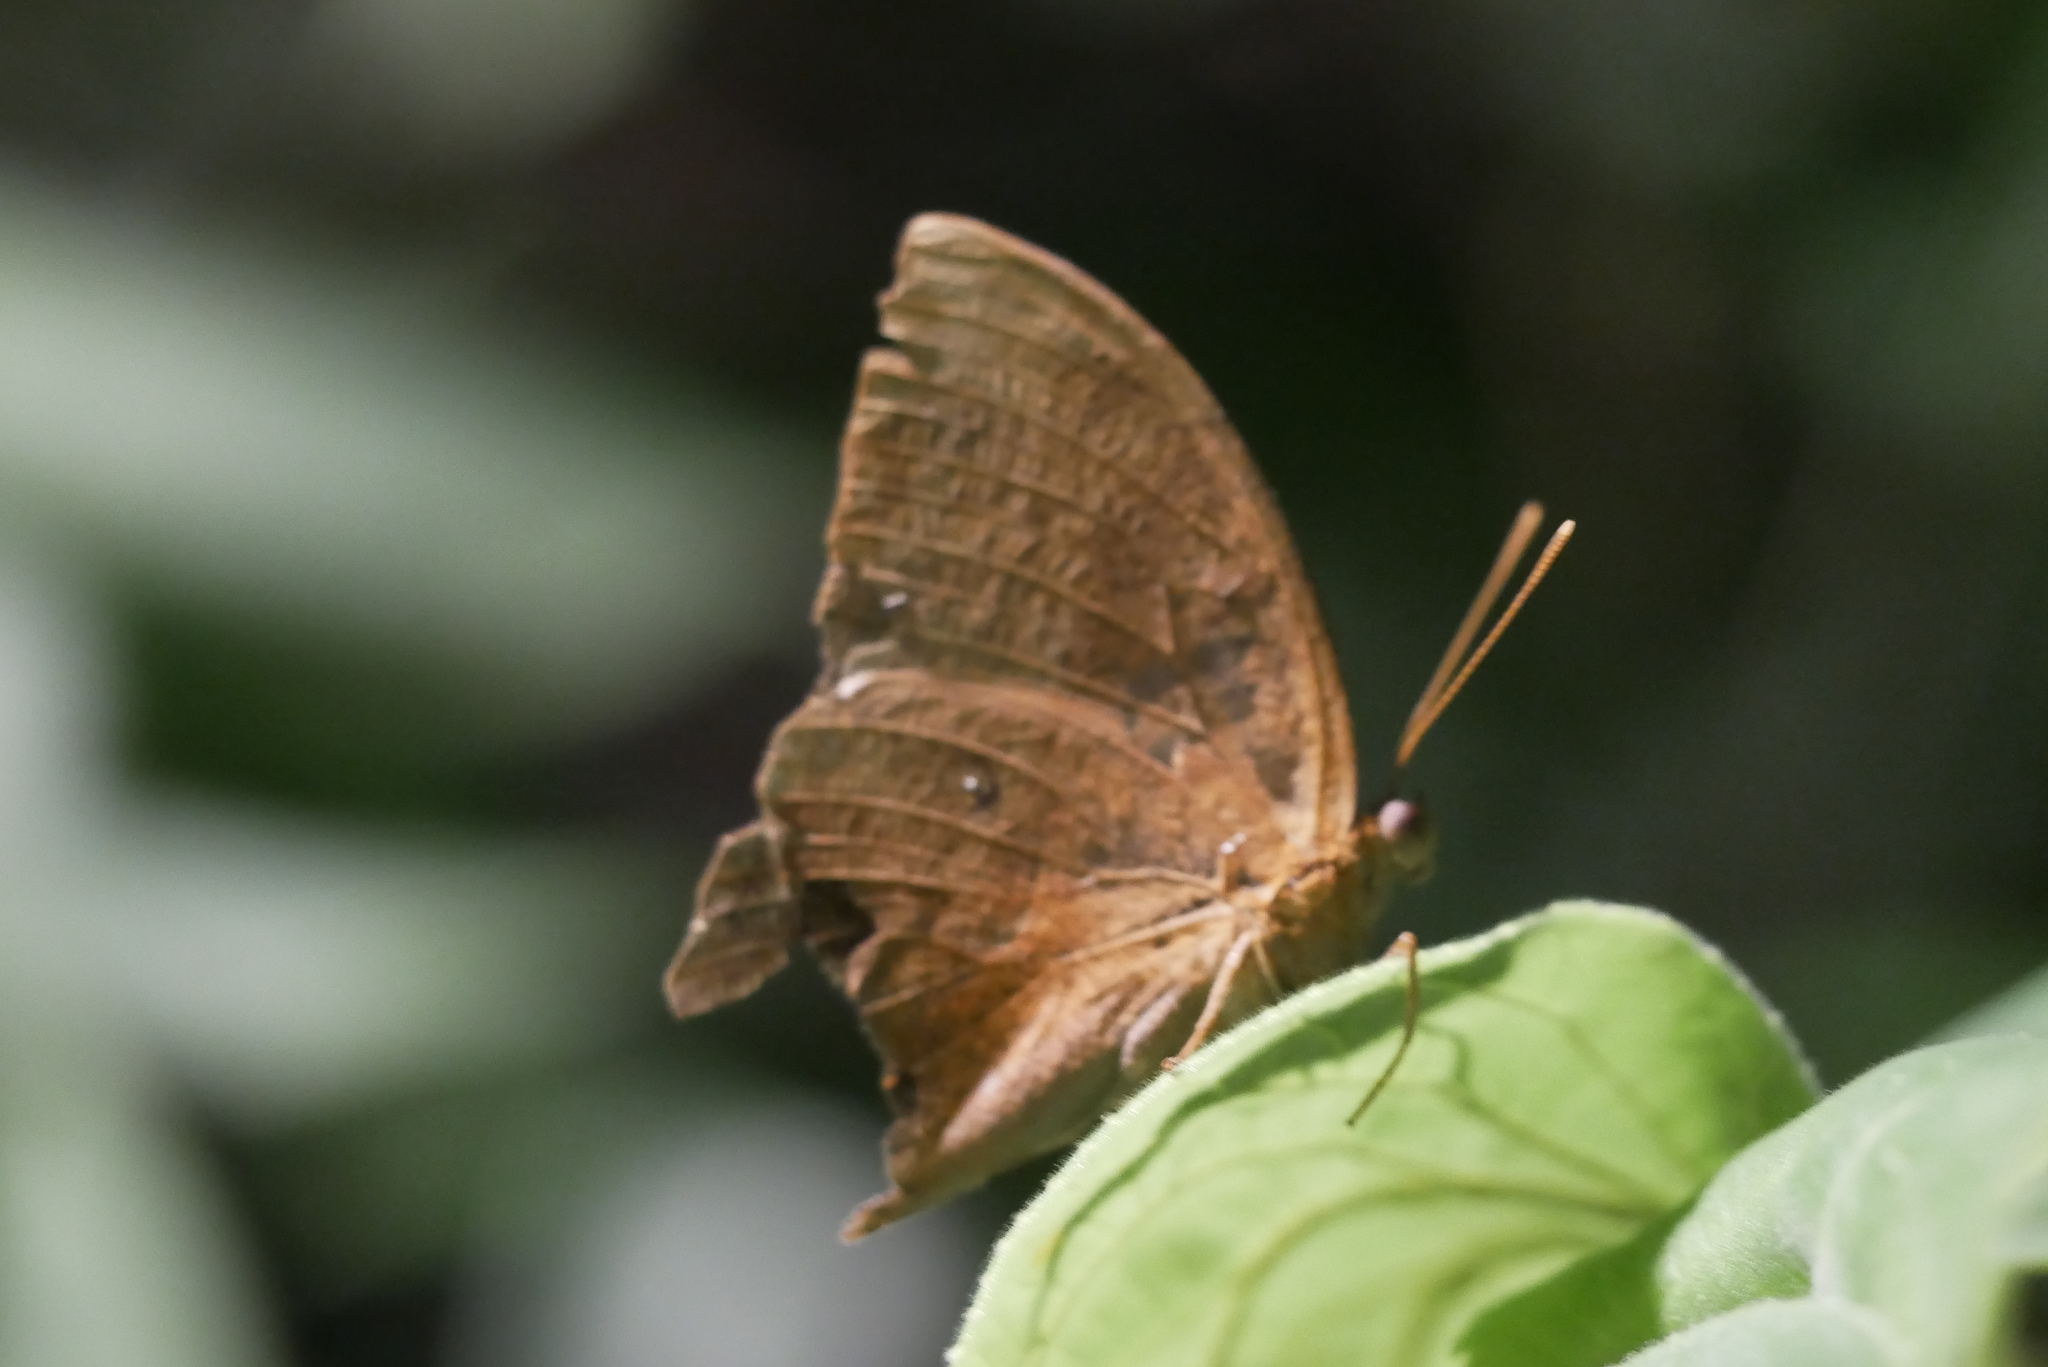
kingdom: Animalia
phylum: Arthropoda
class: Insecta
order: Lepidoptera
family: Nymphalidae
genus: Discophora
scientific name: Discophora sondaica
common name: Common duffer
